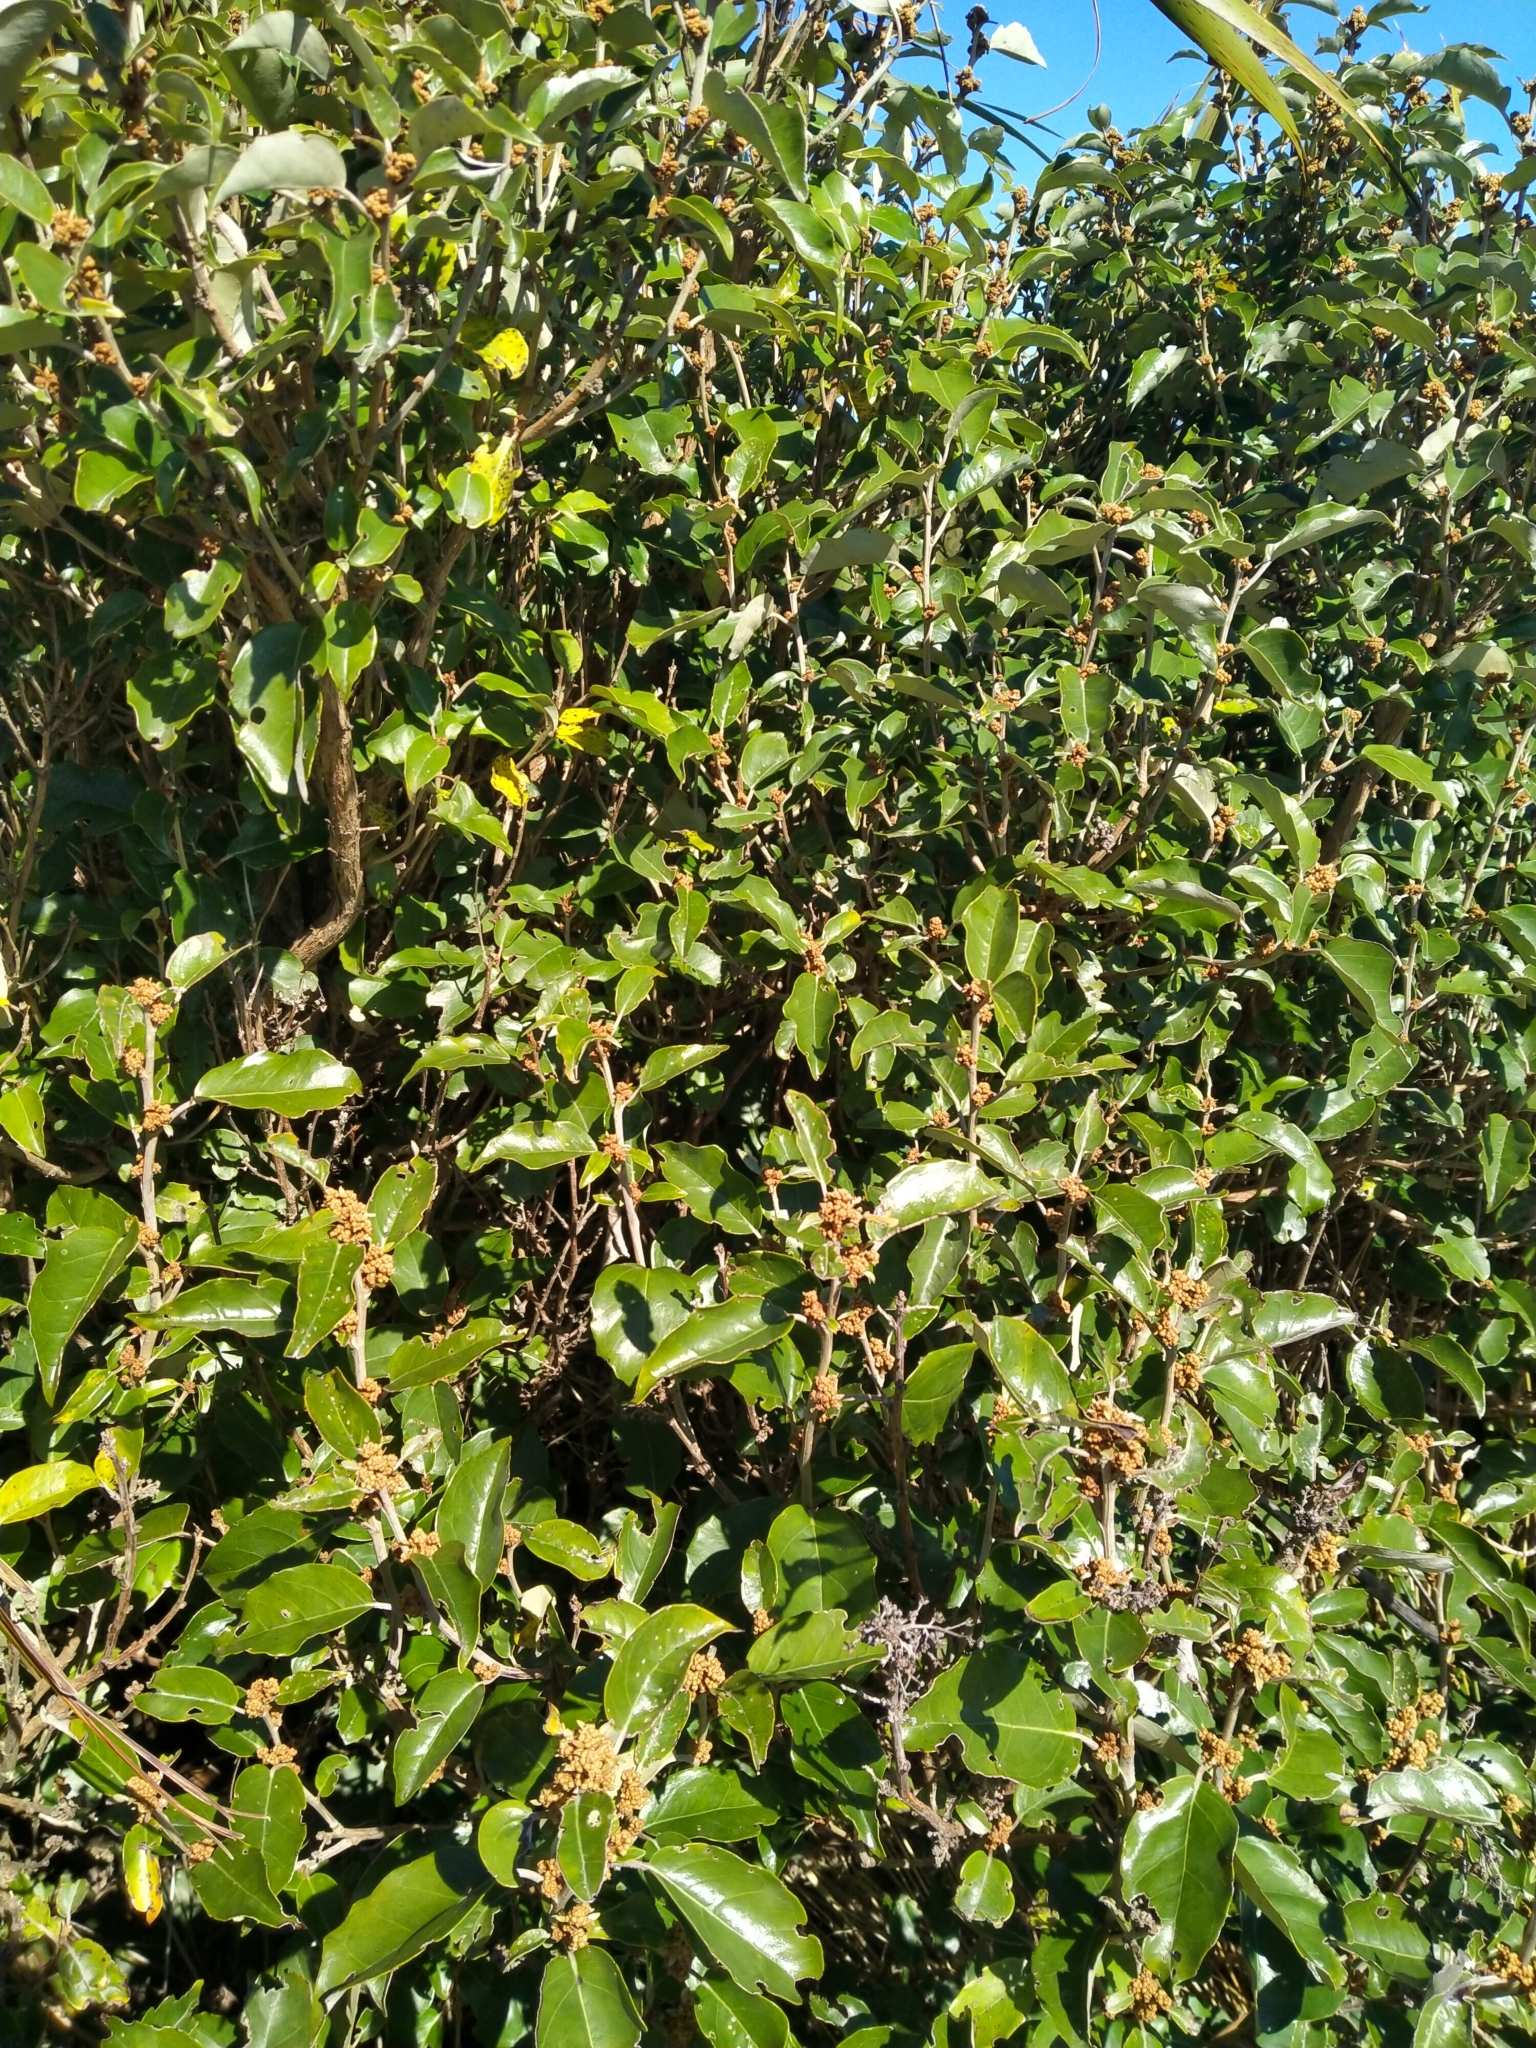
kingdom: Plantae
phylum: Tracheophyta
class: Magnoliopsida
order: Asterales
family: Asteraceae
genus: Olearia
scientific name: Olearia arborescens
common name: Glossy tree daisy
